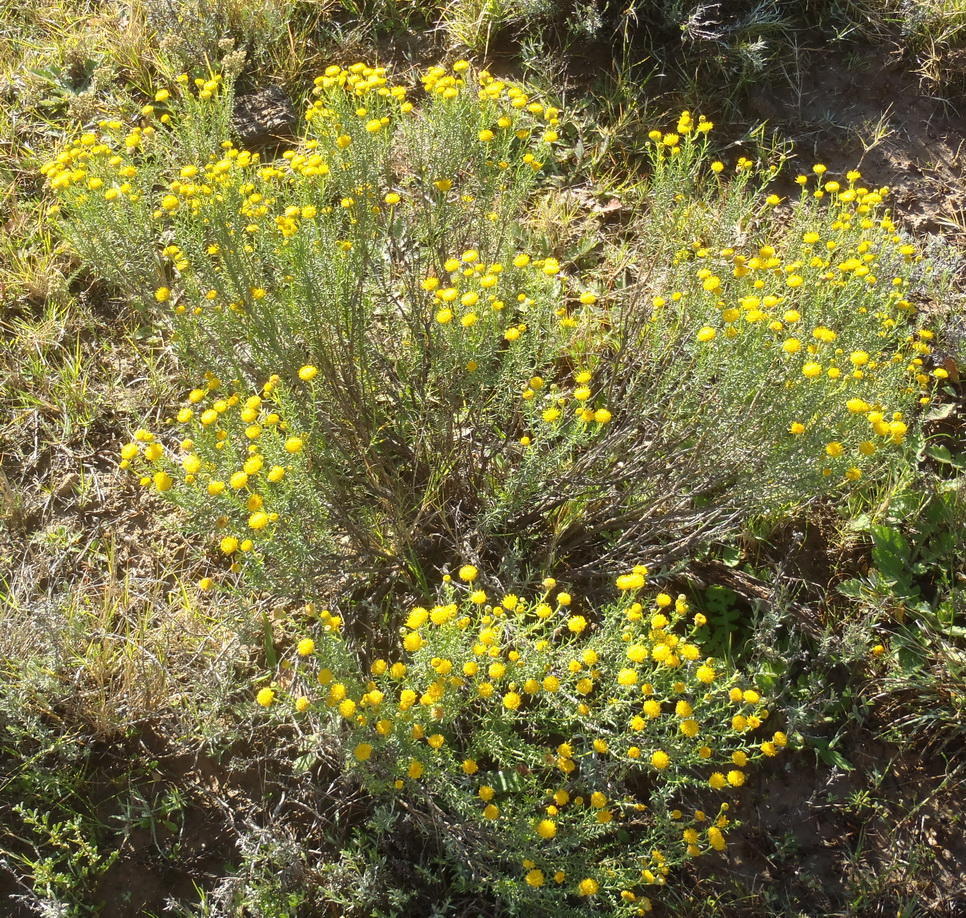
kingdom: Plantae
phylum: Tracheophyta
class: Magnoliopsida
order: Asterales
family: Asteraceae
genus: Chrysocoma
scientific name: Chrysocoma ciliata
